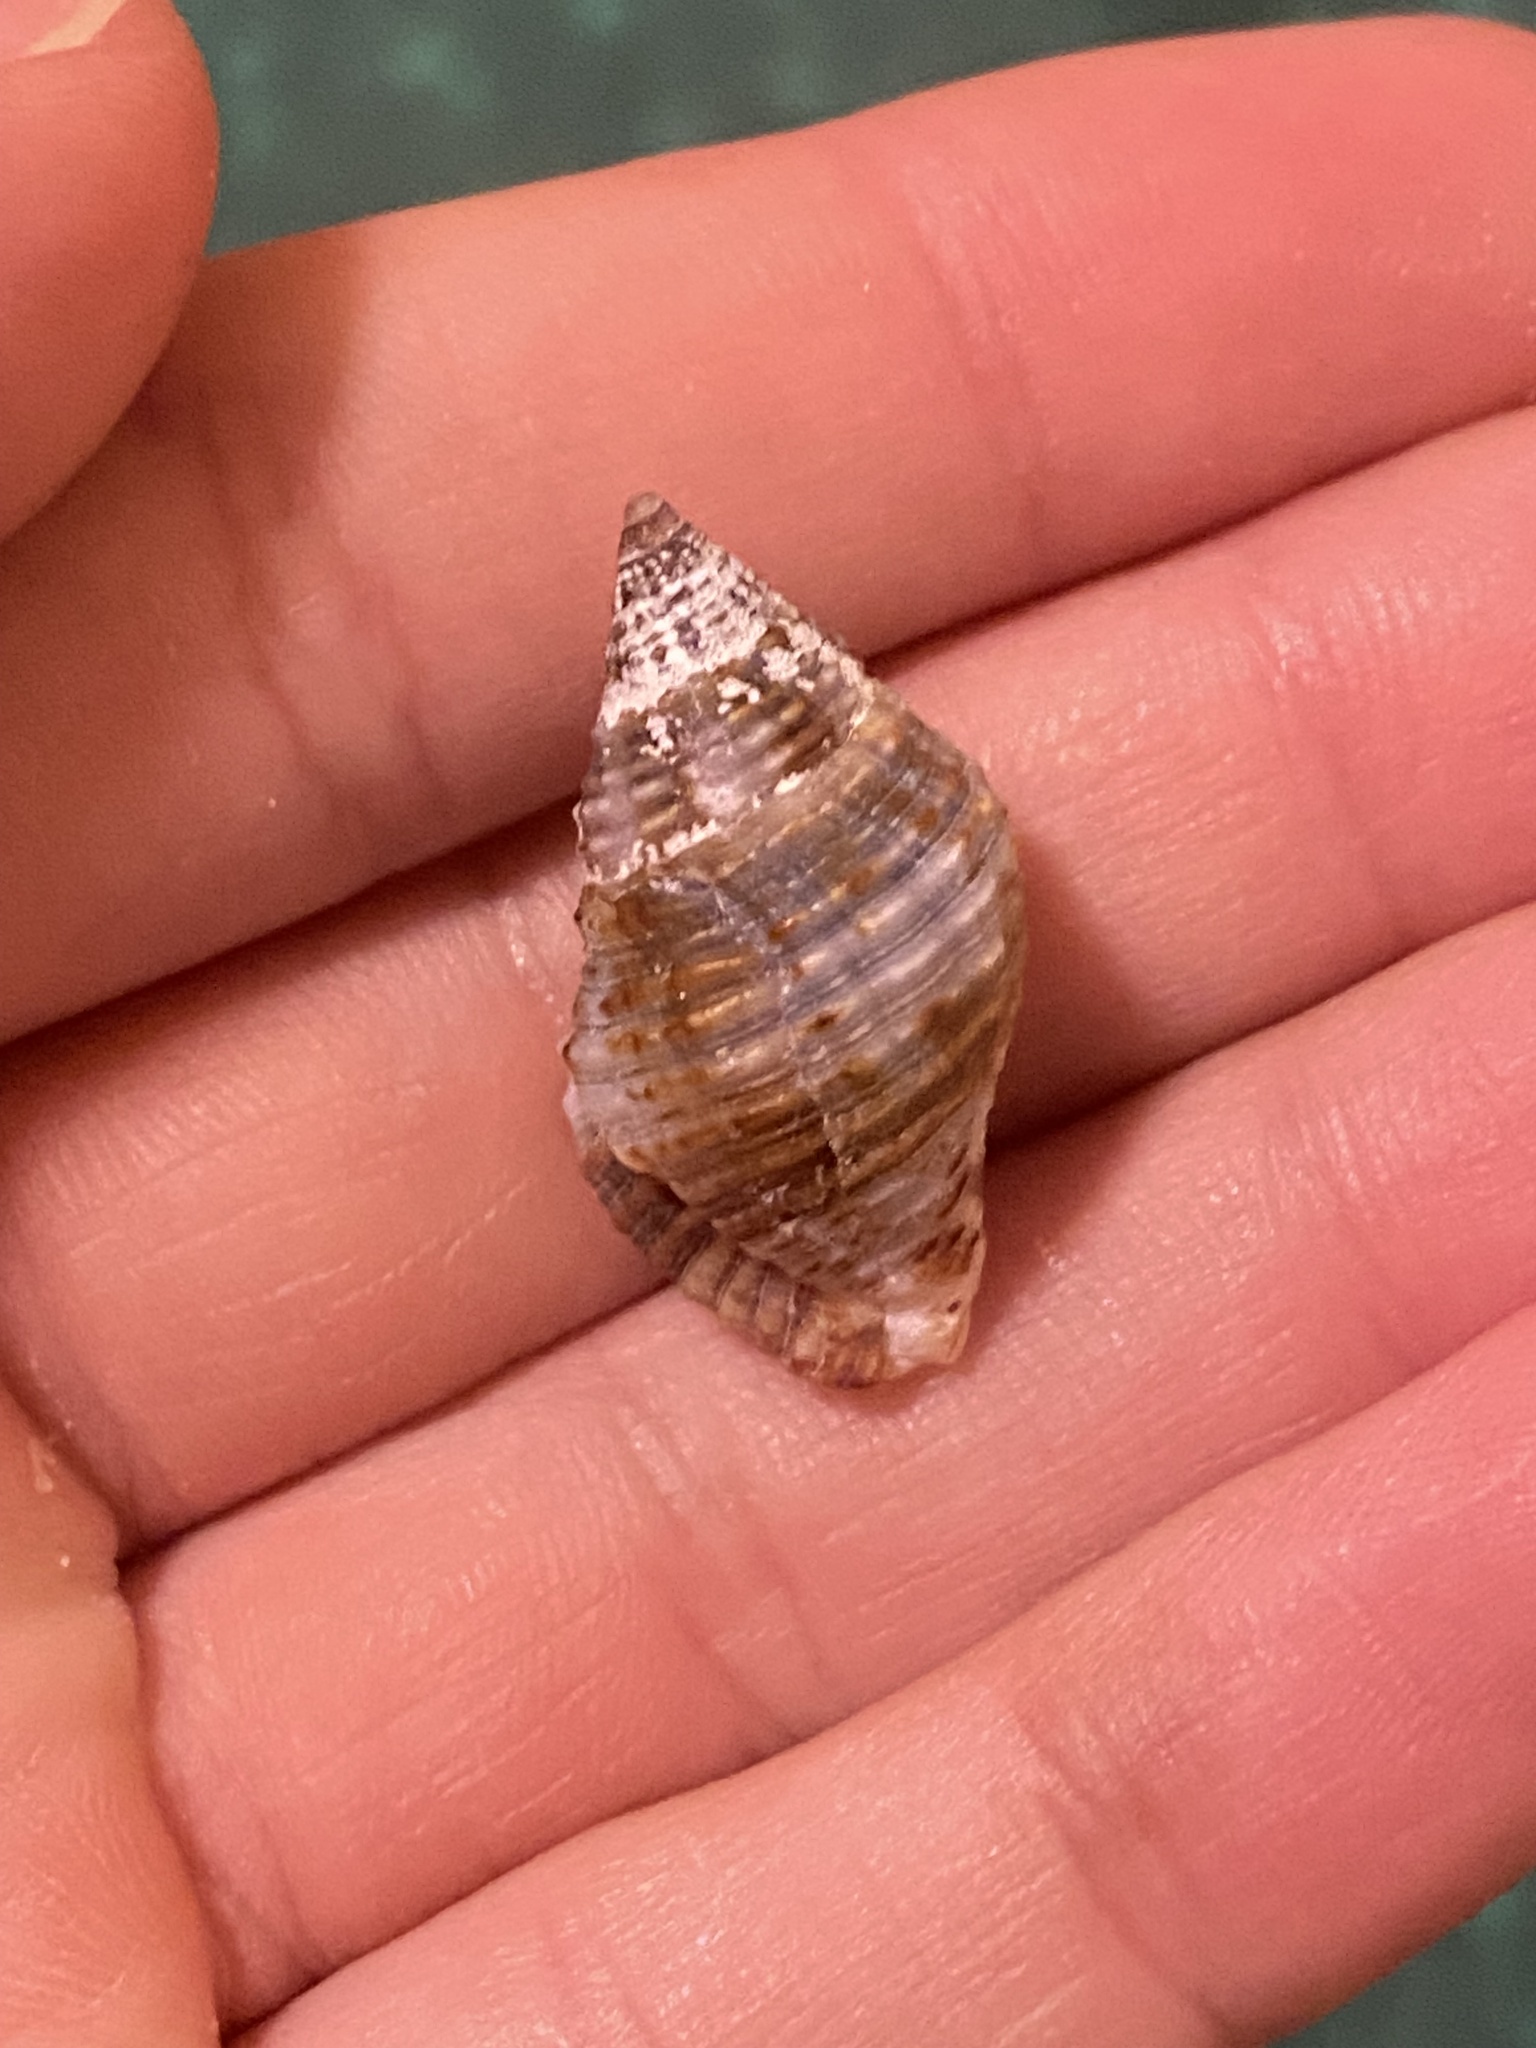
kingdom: Animalia
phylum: Mollusca
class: Gastropoda
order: Neogastropoda
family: Pisaniidae
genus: Gemophos
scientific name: Gemophos tinctus
